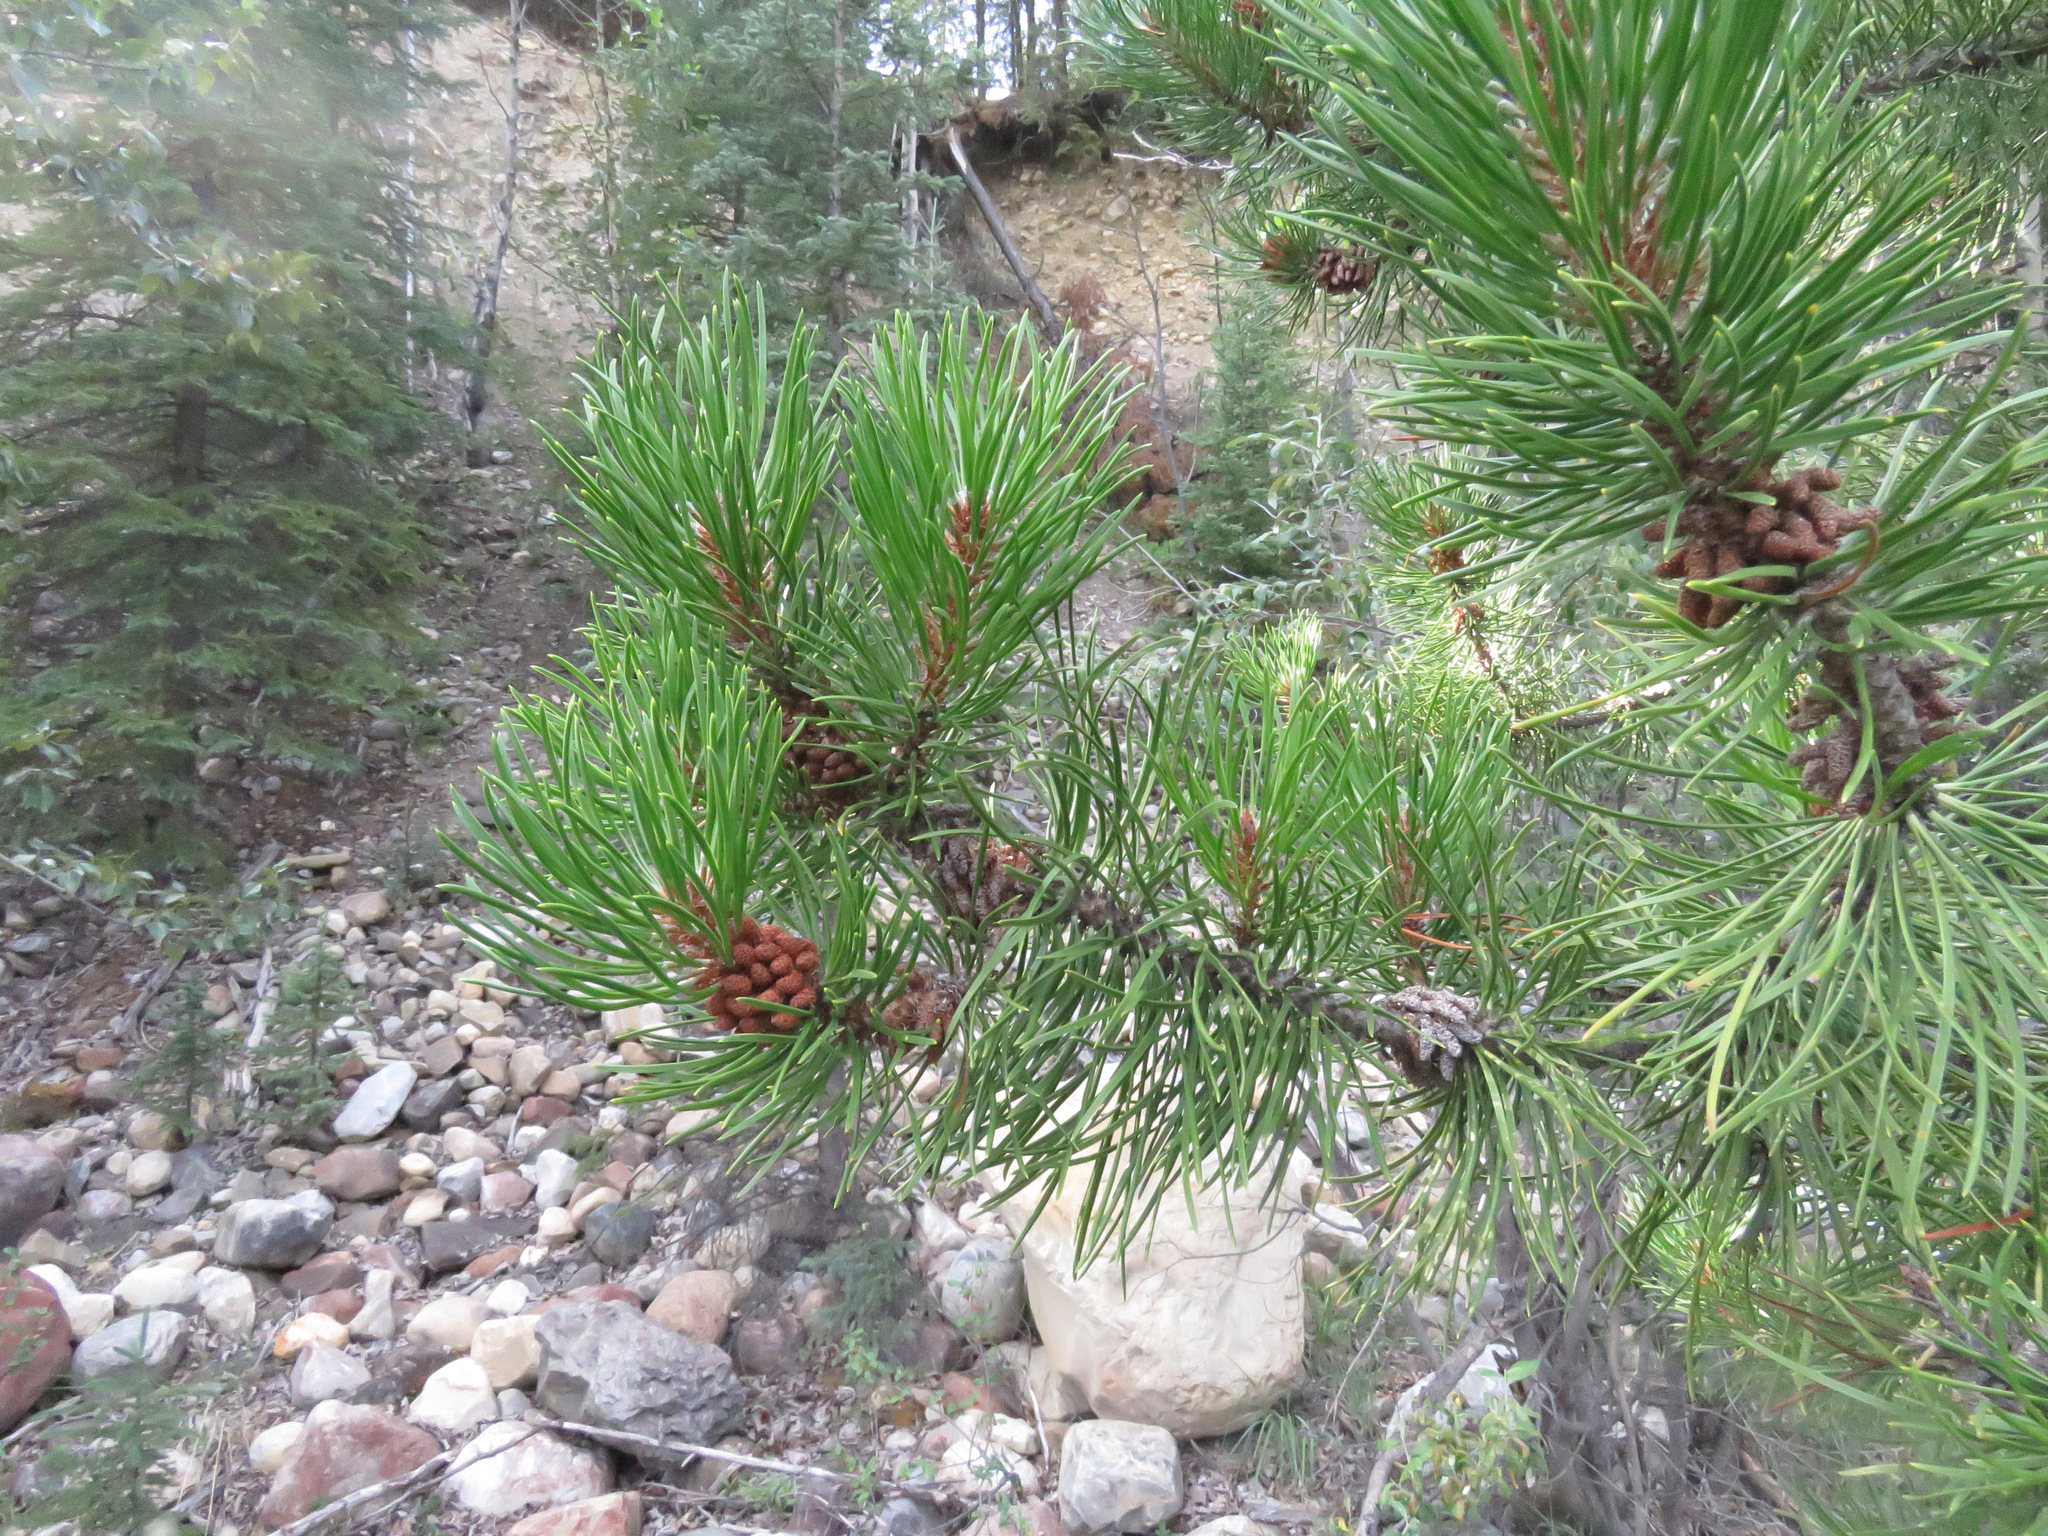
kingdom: Plantae
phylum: Tracheophyta
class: Pinopsida
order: Pinales
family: Pinaceae
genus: Pinus
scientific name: Pinus contorta
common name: Lodgepole pine
